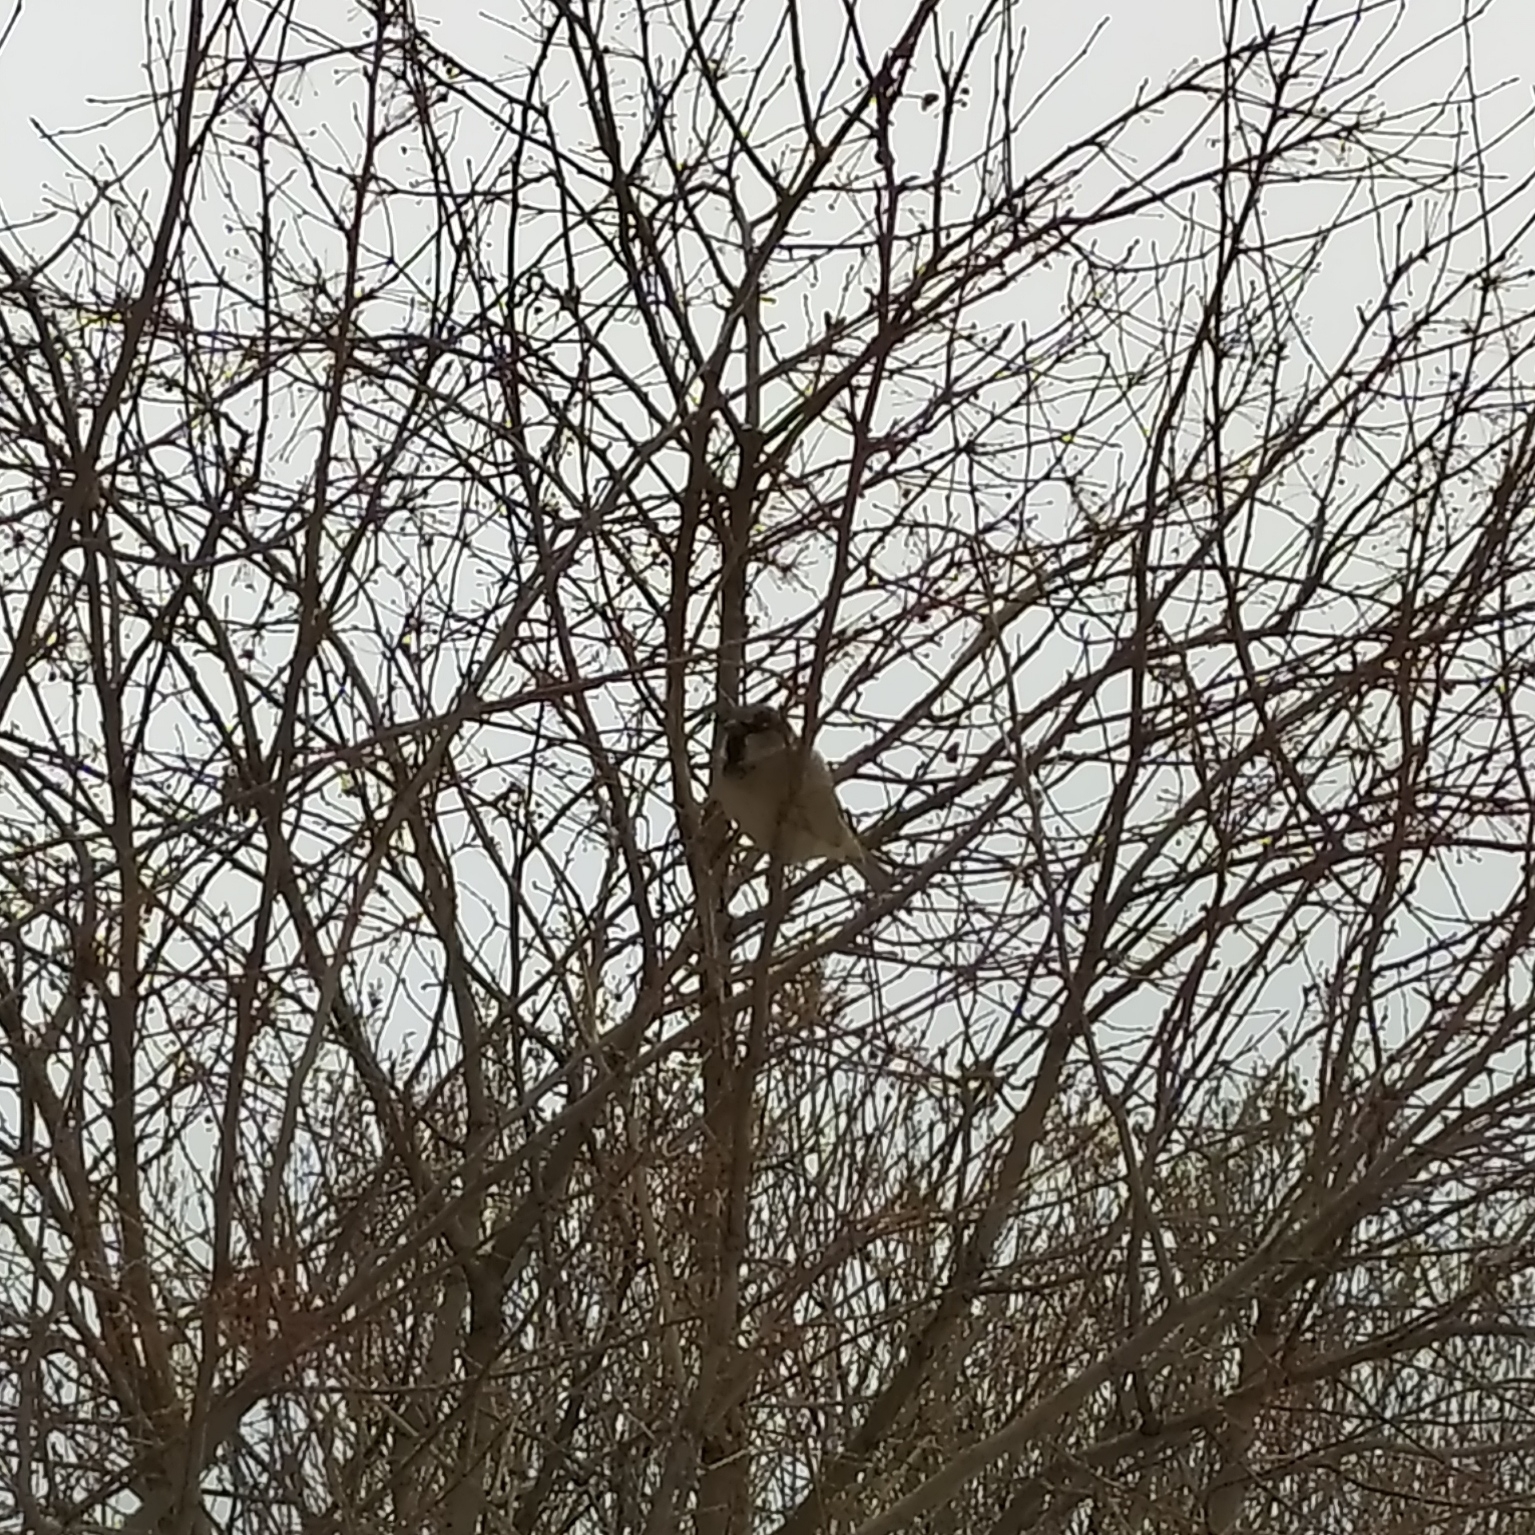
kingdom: Animalia
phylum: Chordata
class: Aves
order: Passeriformes
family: Passeridae
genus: Passer
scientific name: Passer domesticus
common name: House sparrow
